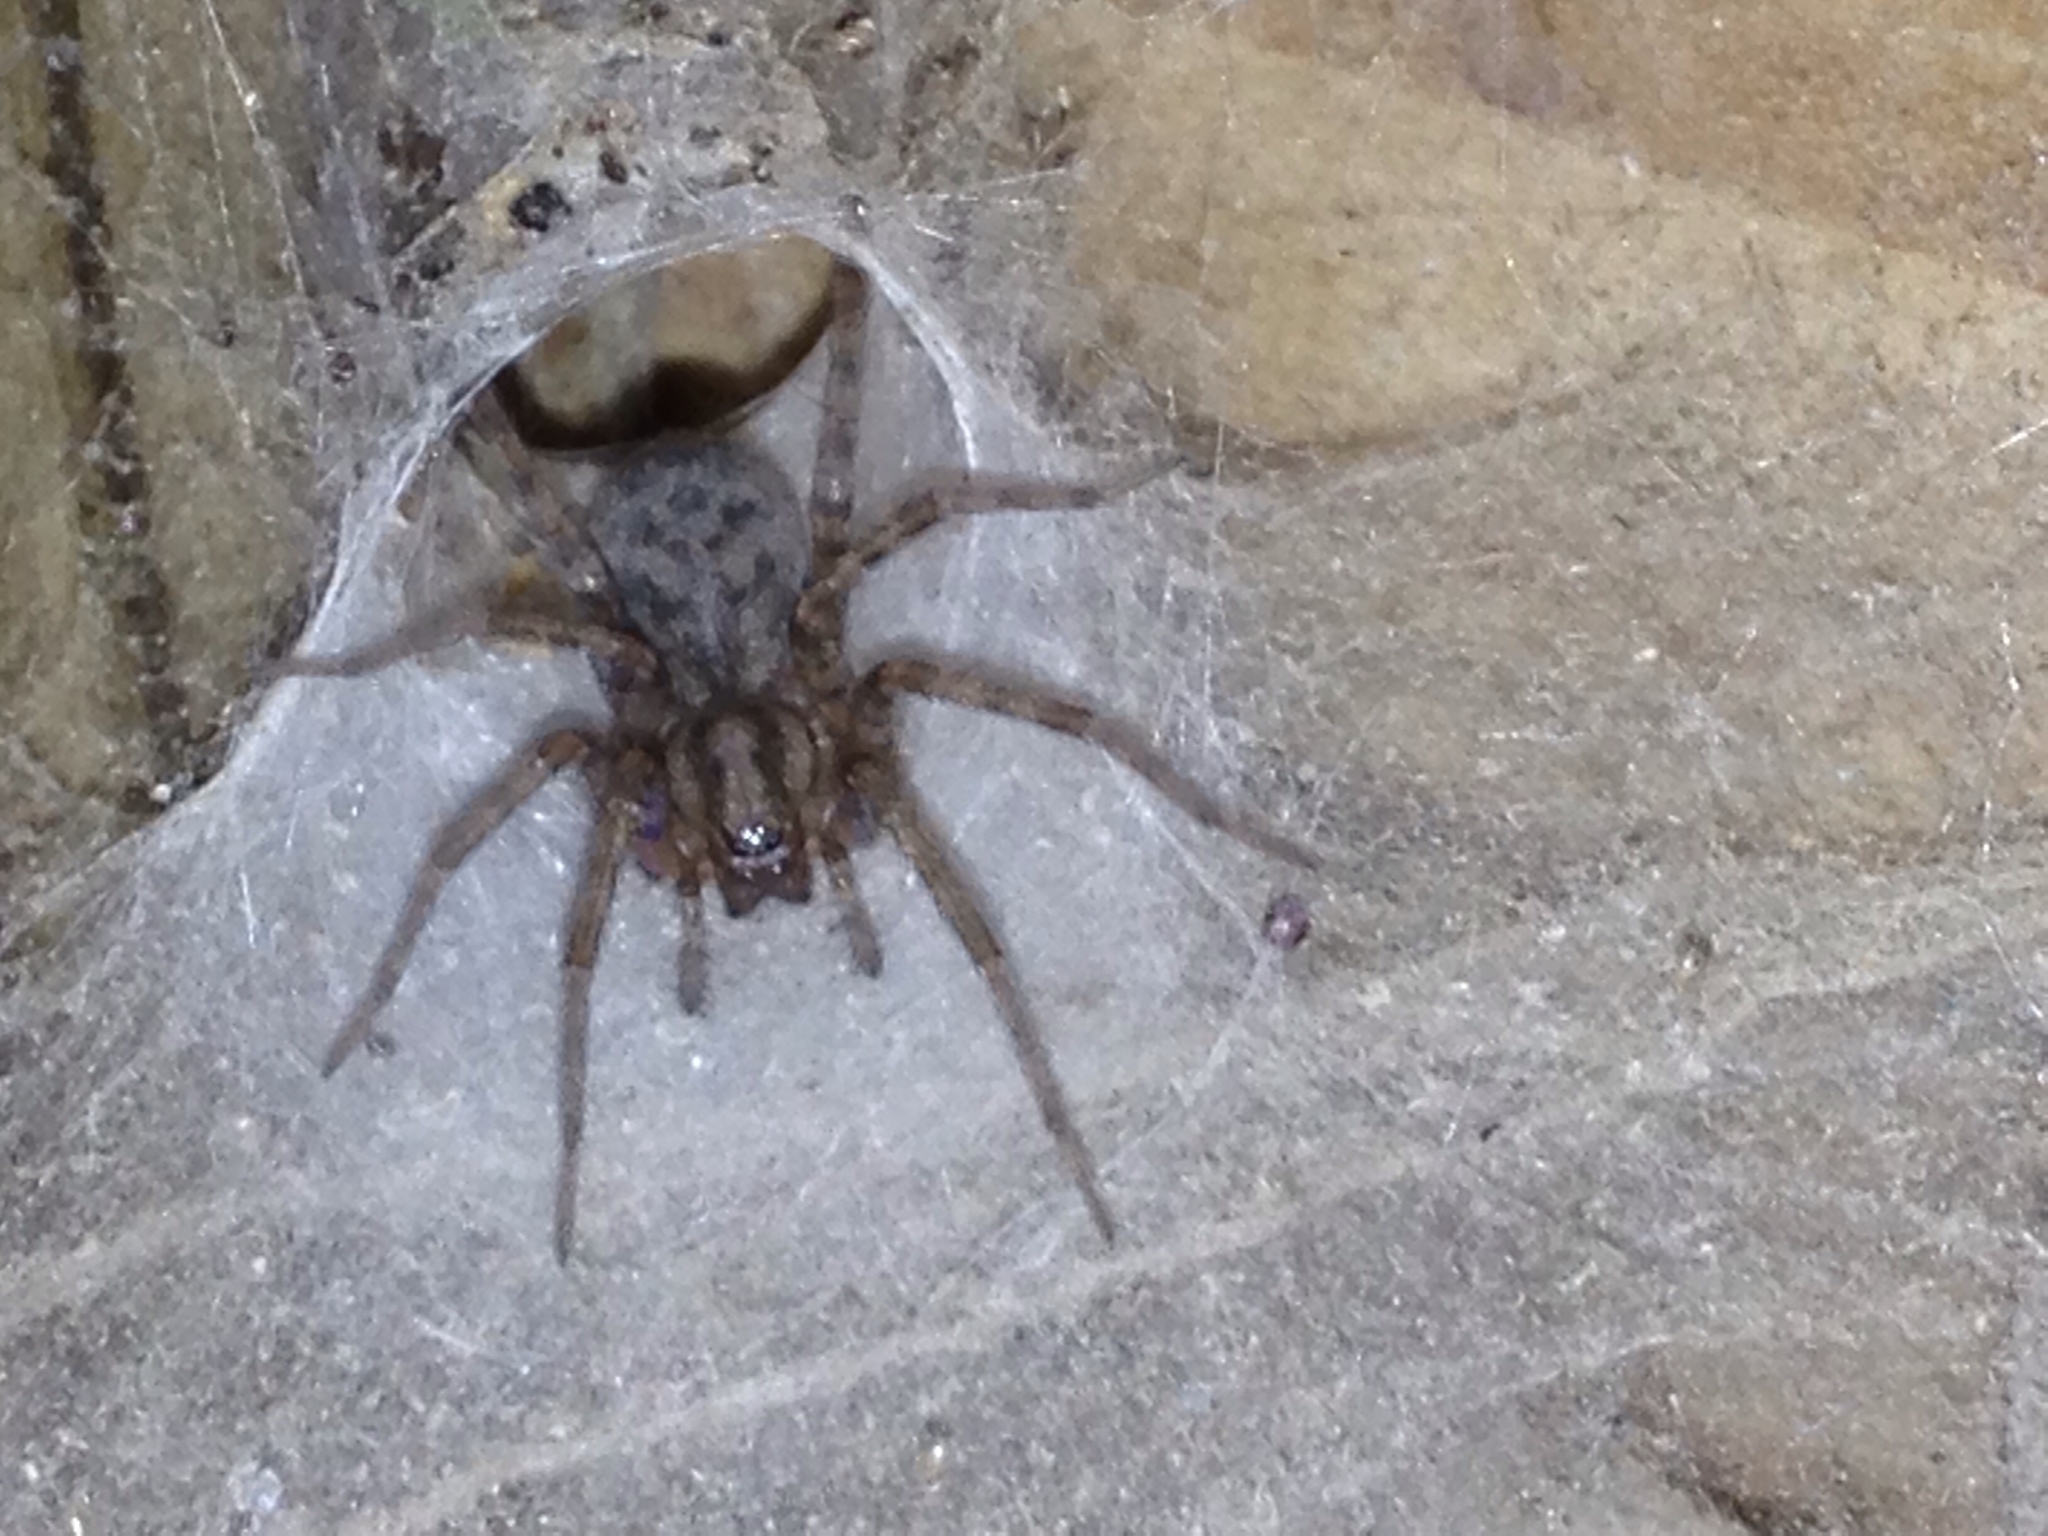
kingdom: Animalia
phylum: Arthropoda
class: Arachnida
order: Araneae
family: Agelenidae
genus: Tegenaria
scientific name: Tegenaria domestica
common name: Barn funnel weaver
